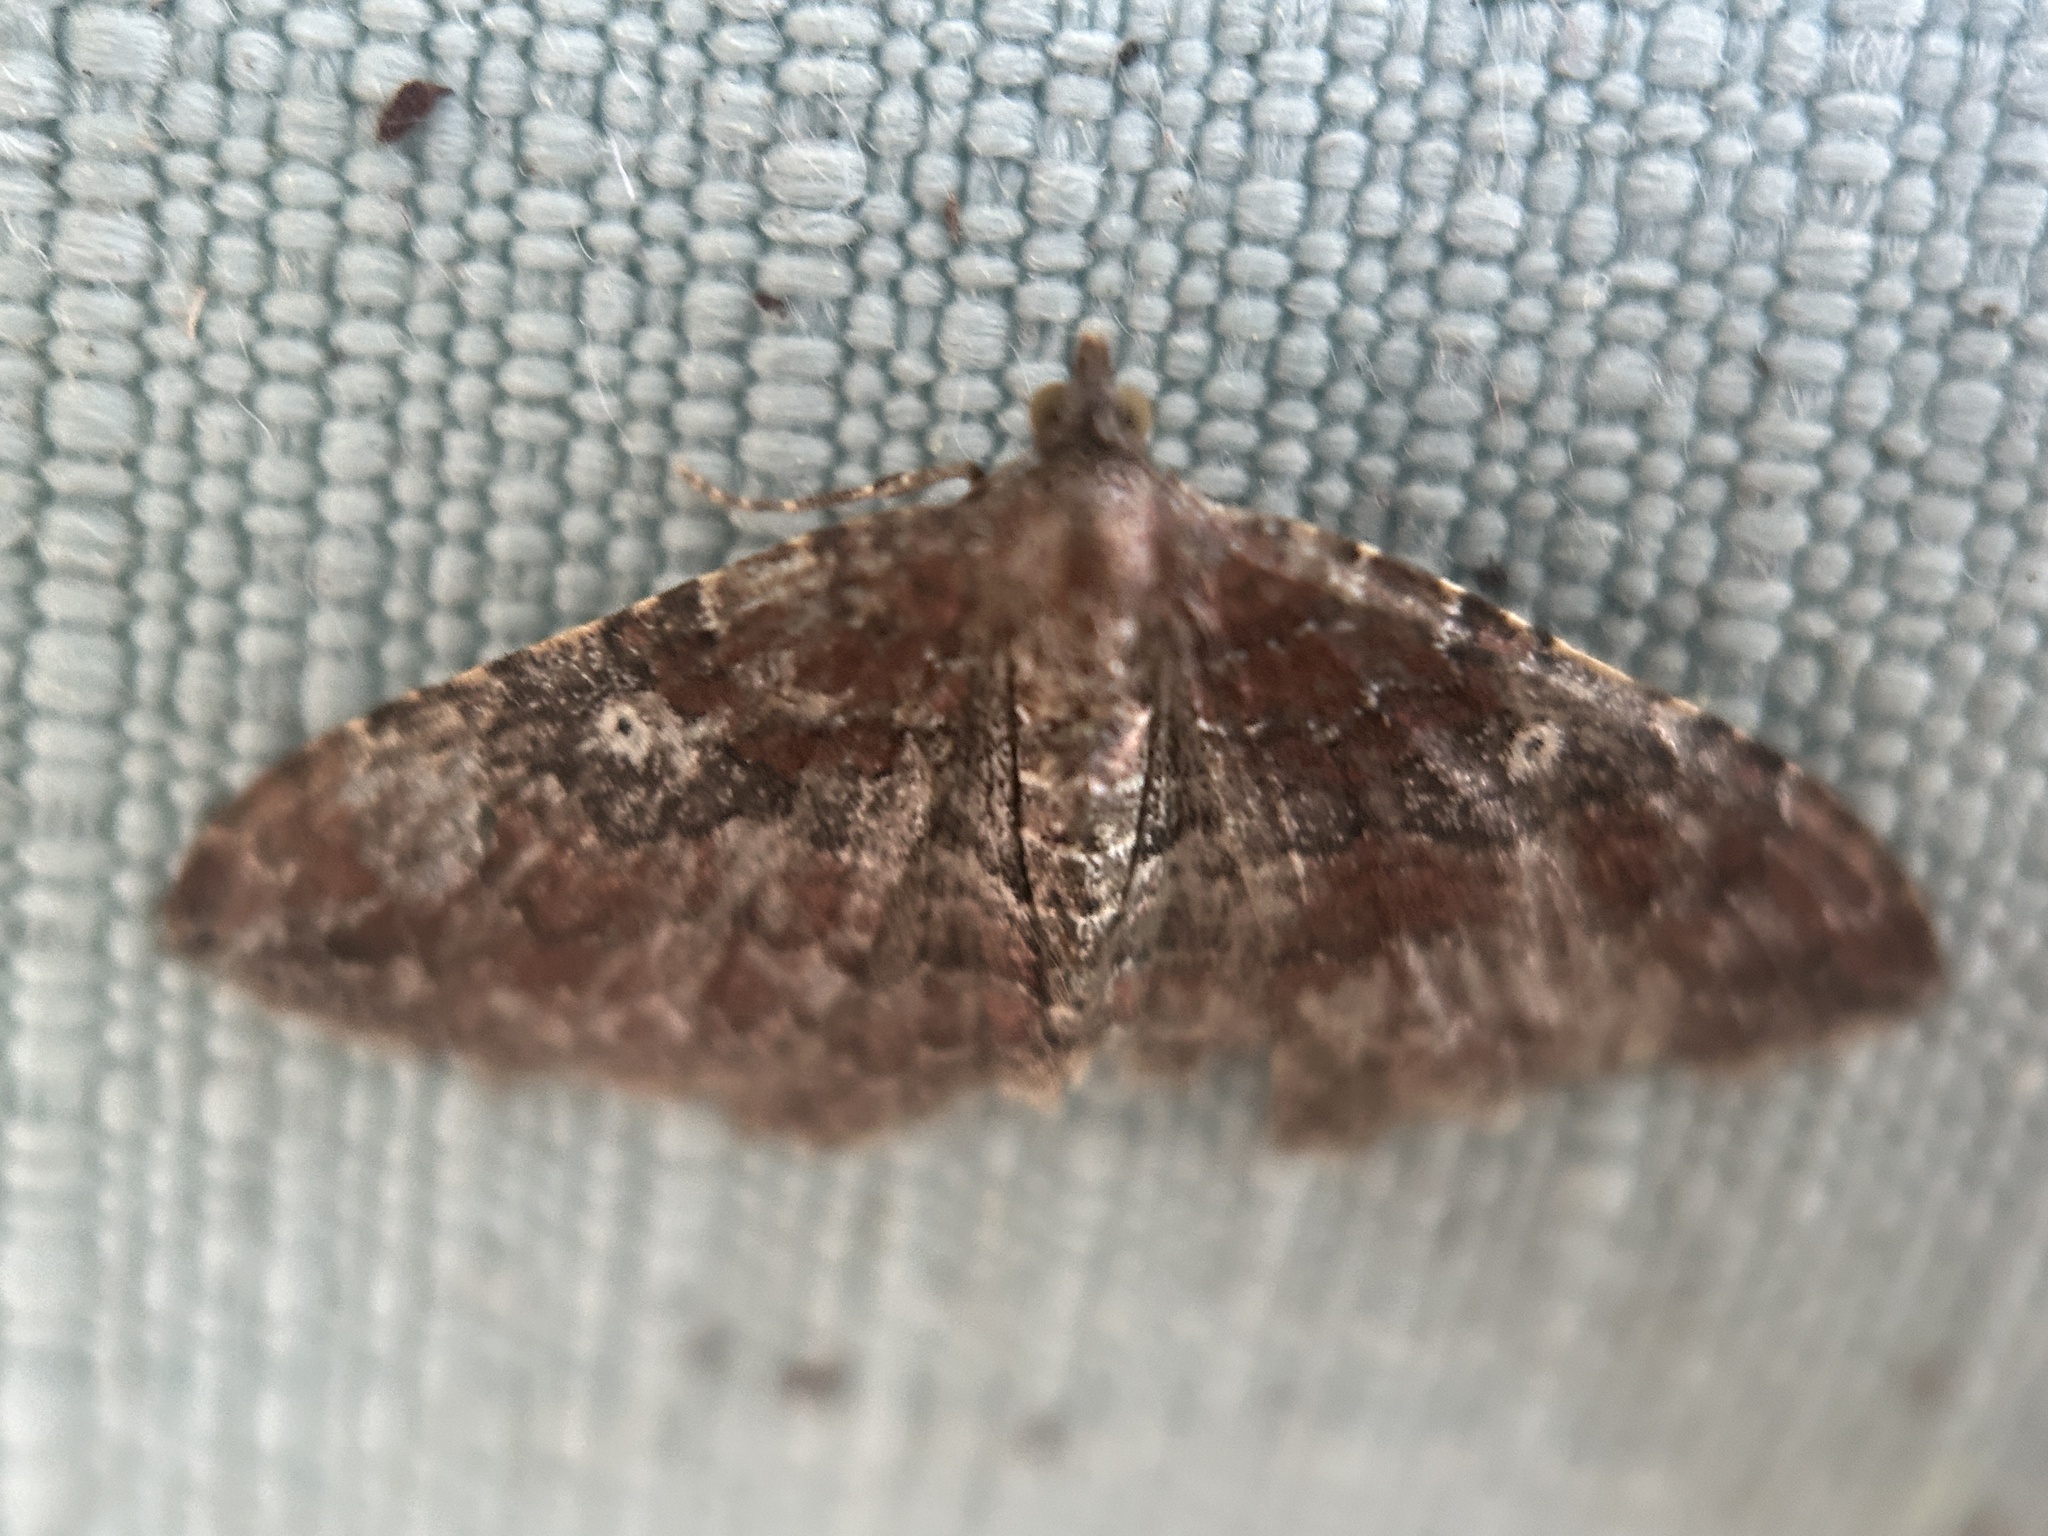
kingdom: Animalia
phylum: Arthropoda
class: Insecta
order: Lepidoptera
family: Geometridae
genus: Orthonama
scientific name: Orthonama obstipata
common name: The gem
